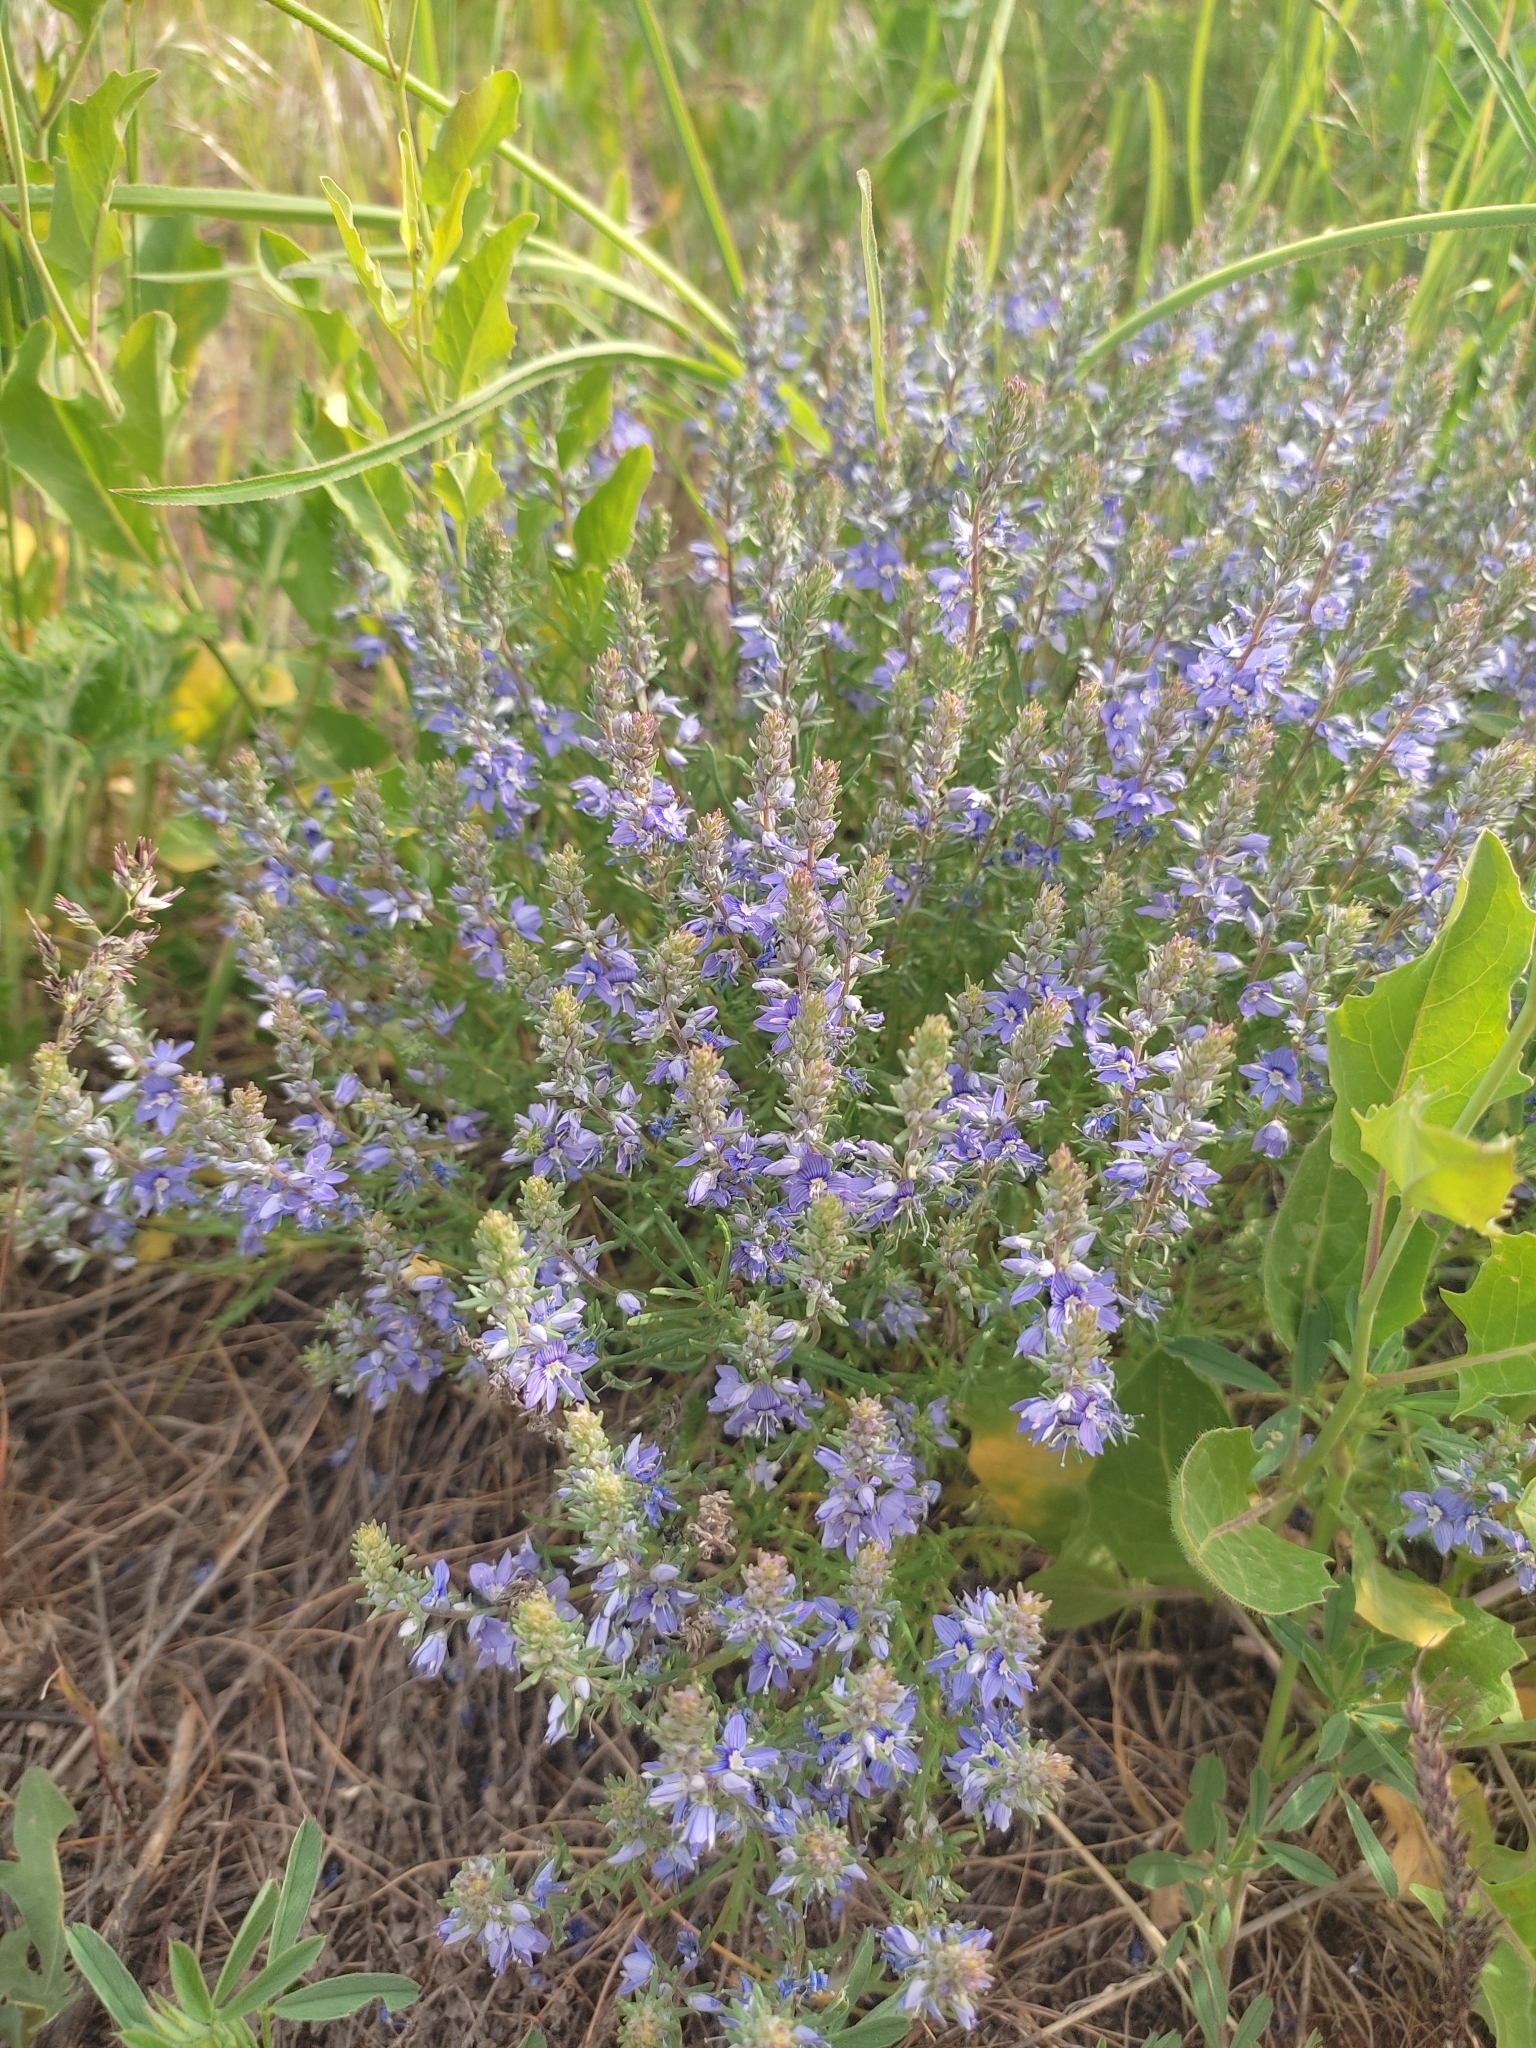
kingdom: Plantae
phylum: Tracheophyta
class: Magnoliopsida
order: Lamiales
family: Plantaginaceae
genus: Veronica
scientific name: Veronica multifida
